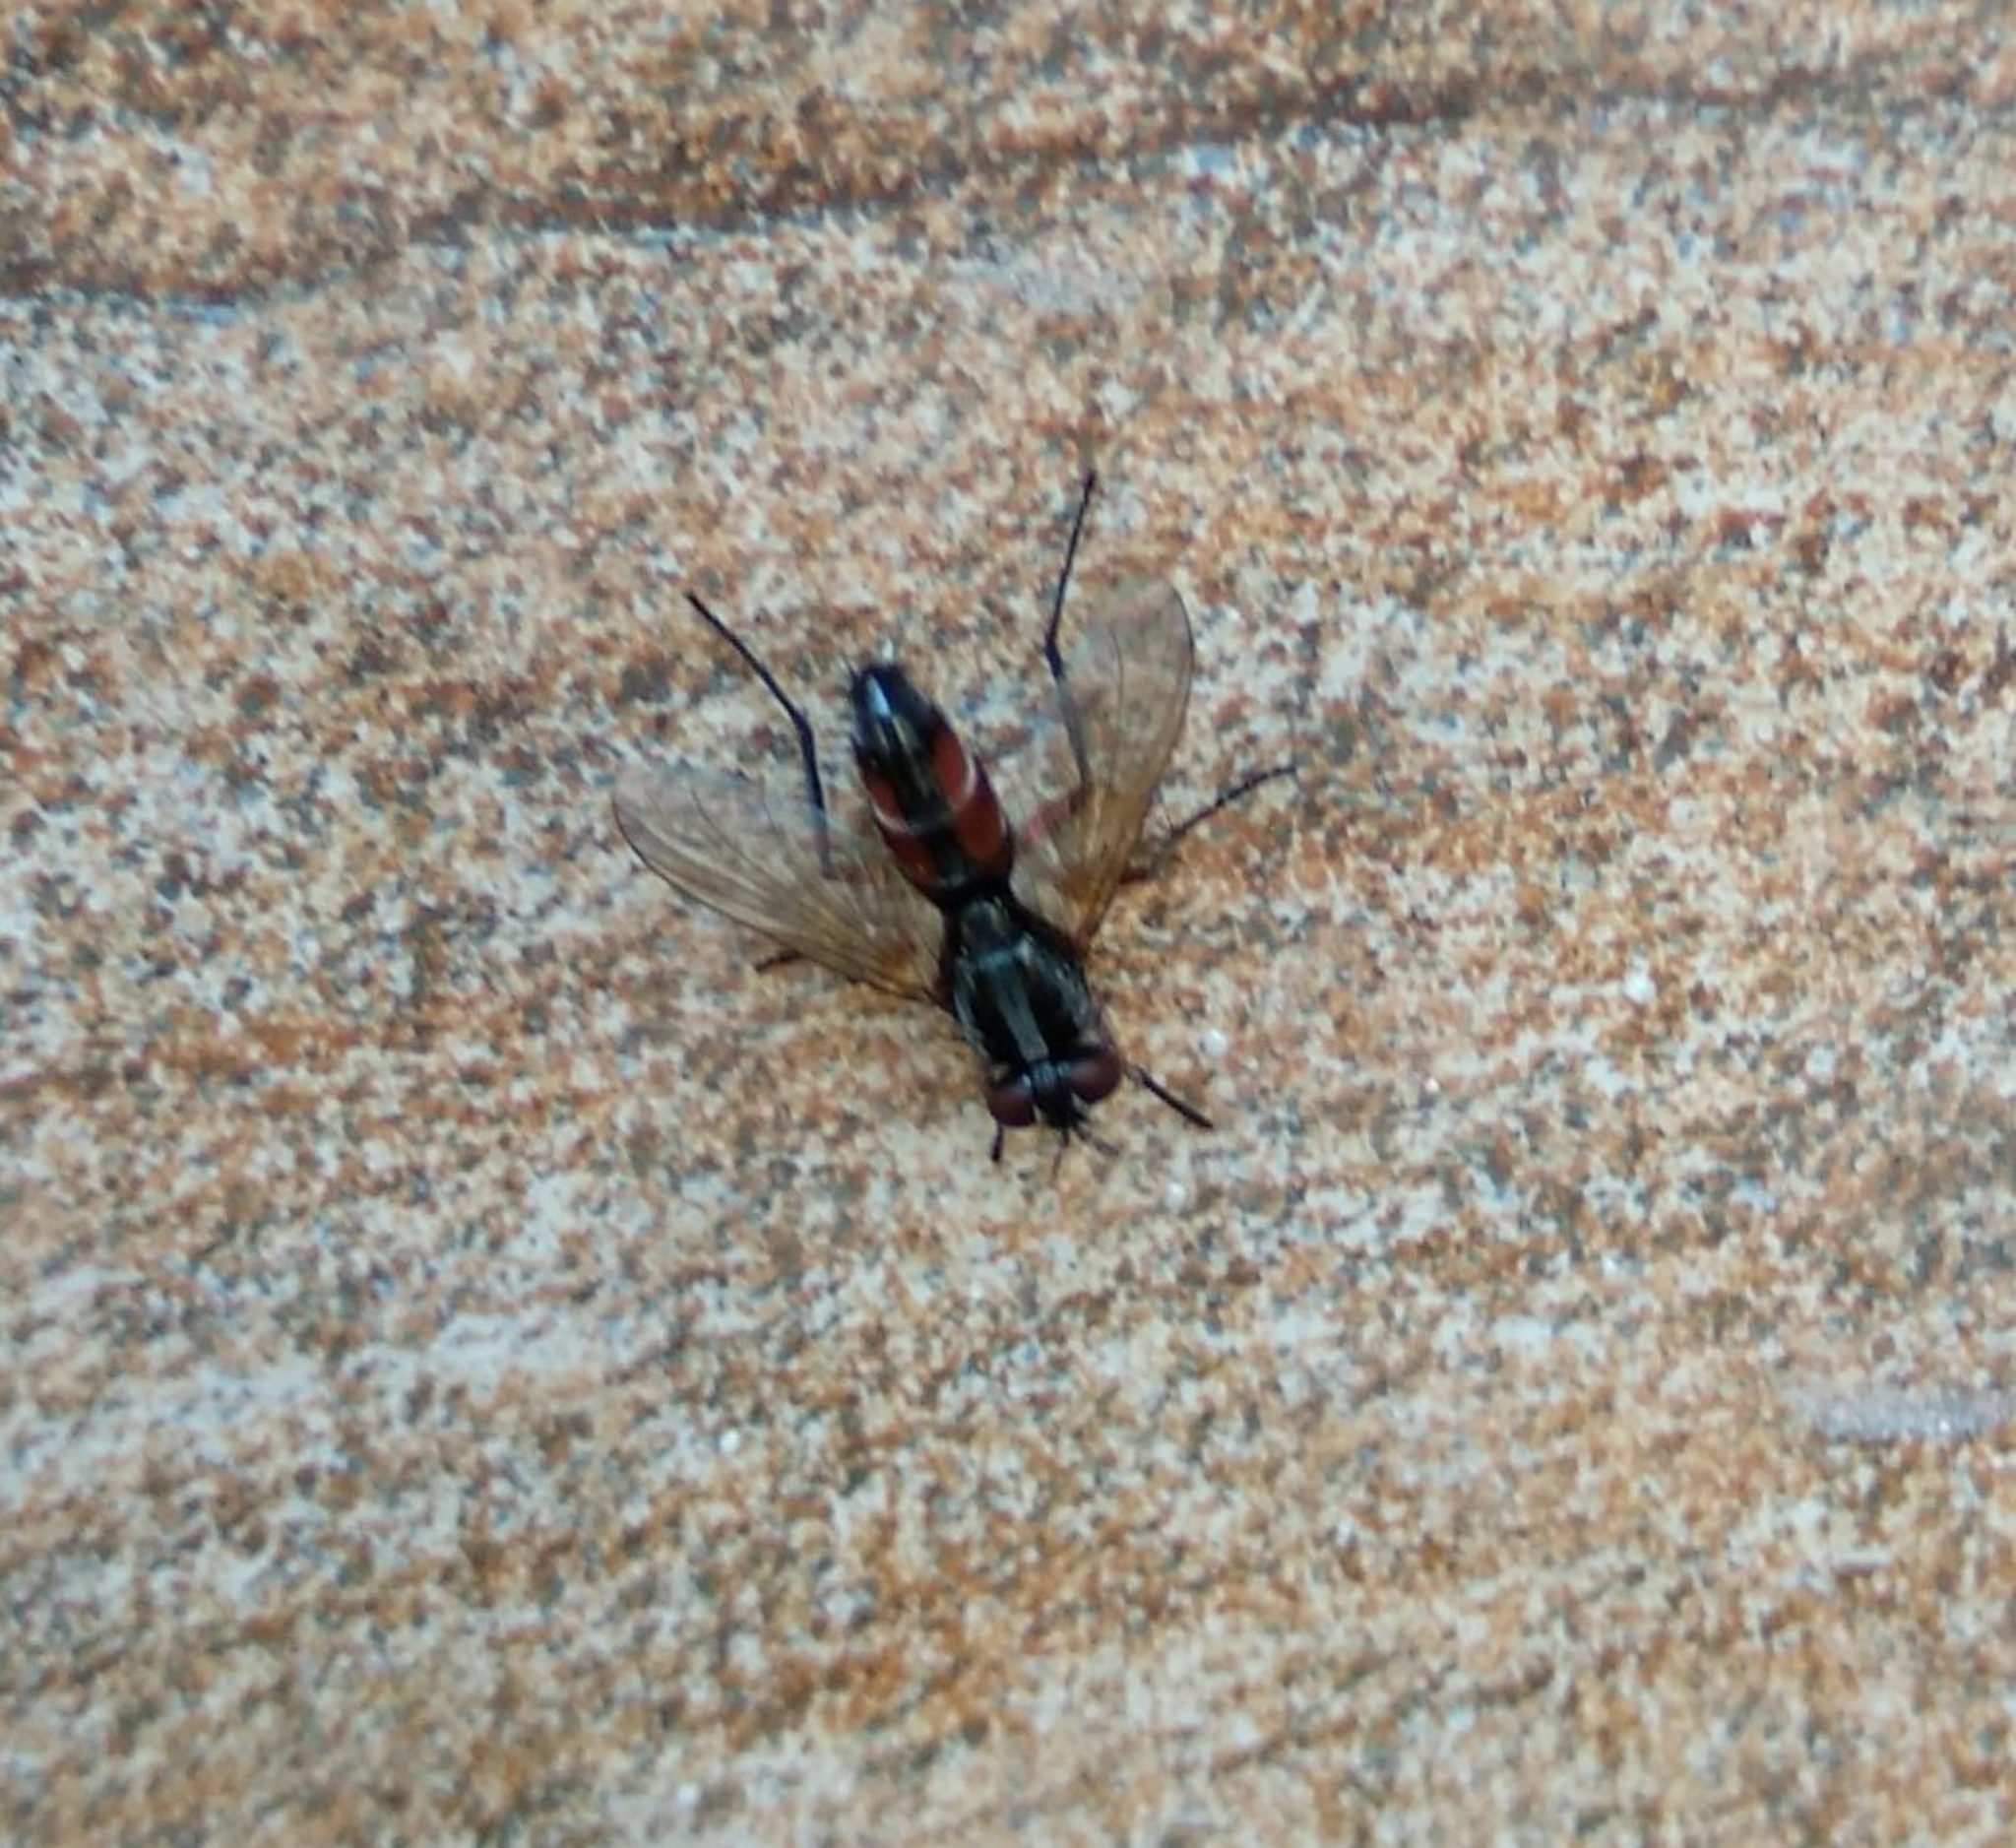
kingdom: Animalia
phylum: Arthropoda
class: Insecta
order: Diptera
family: Tachinidae
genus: Mintho
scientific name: Mintho rufiventris
